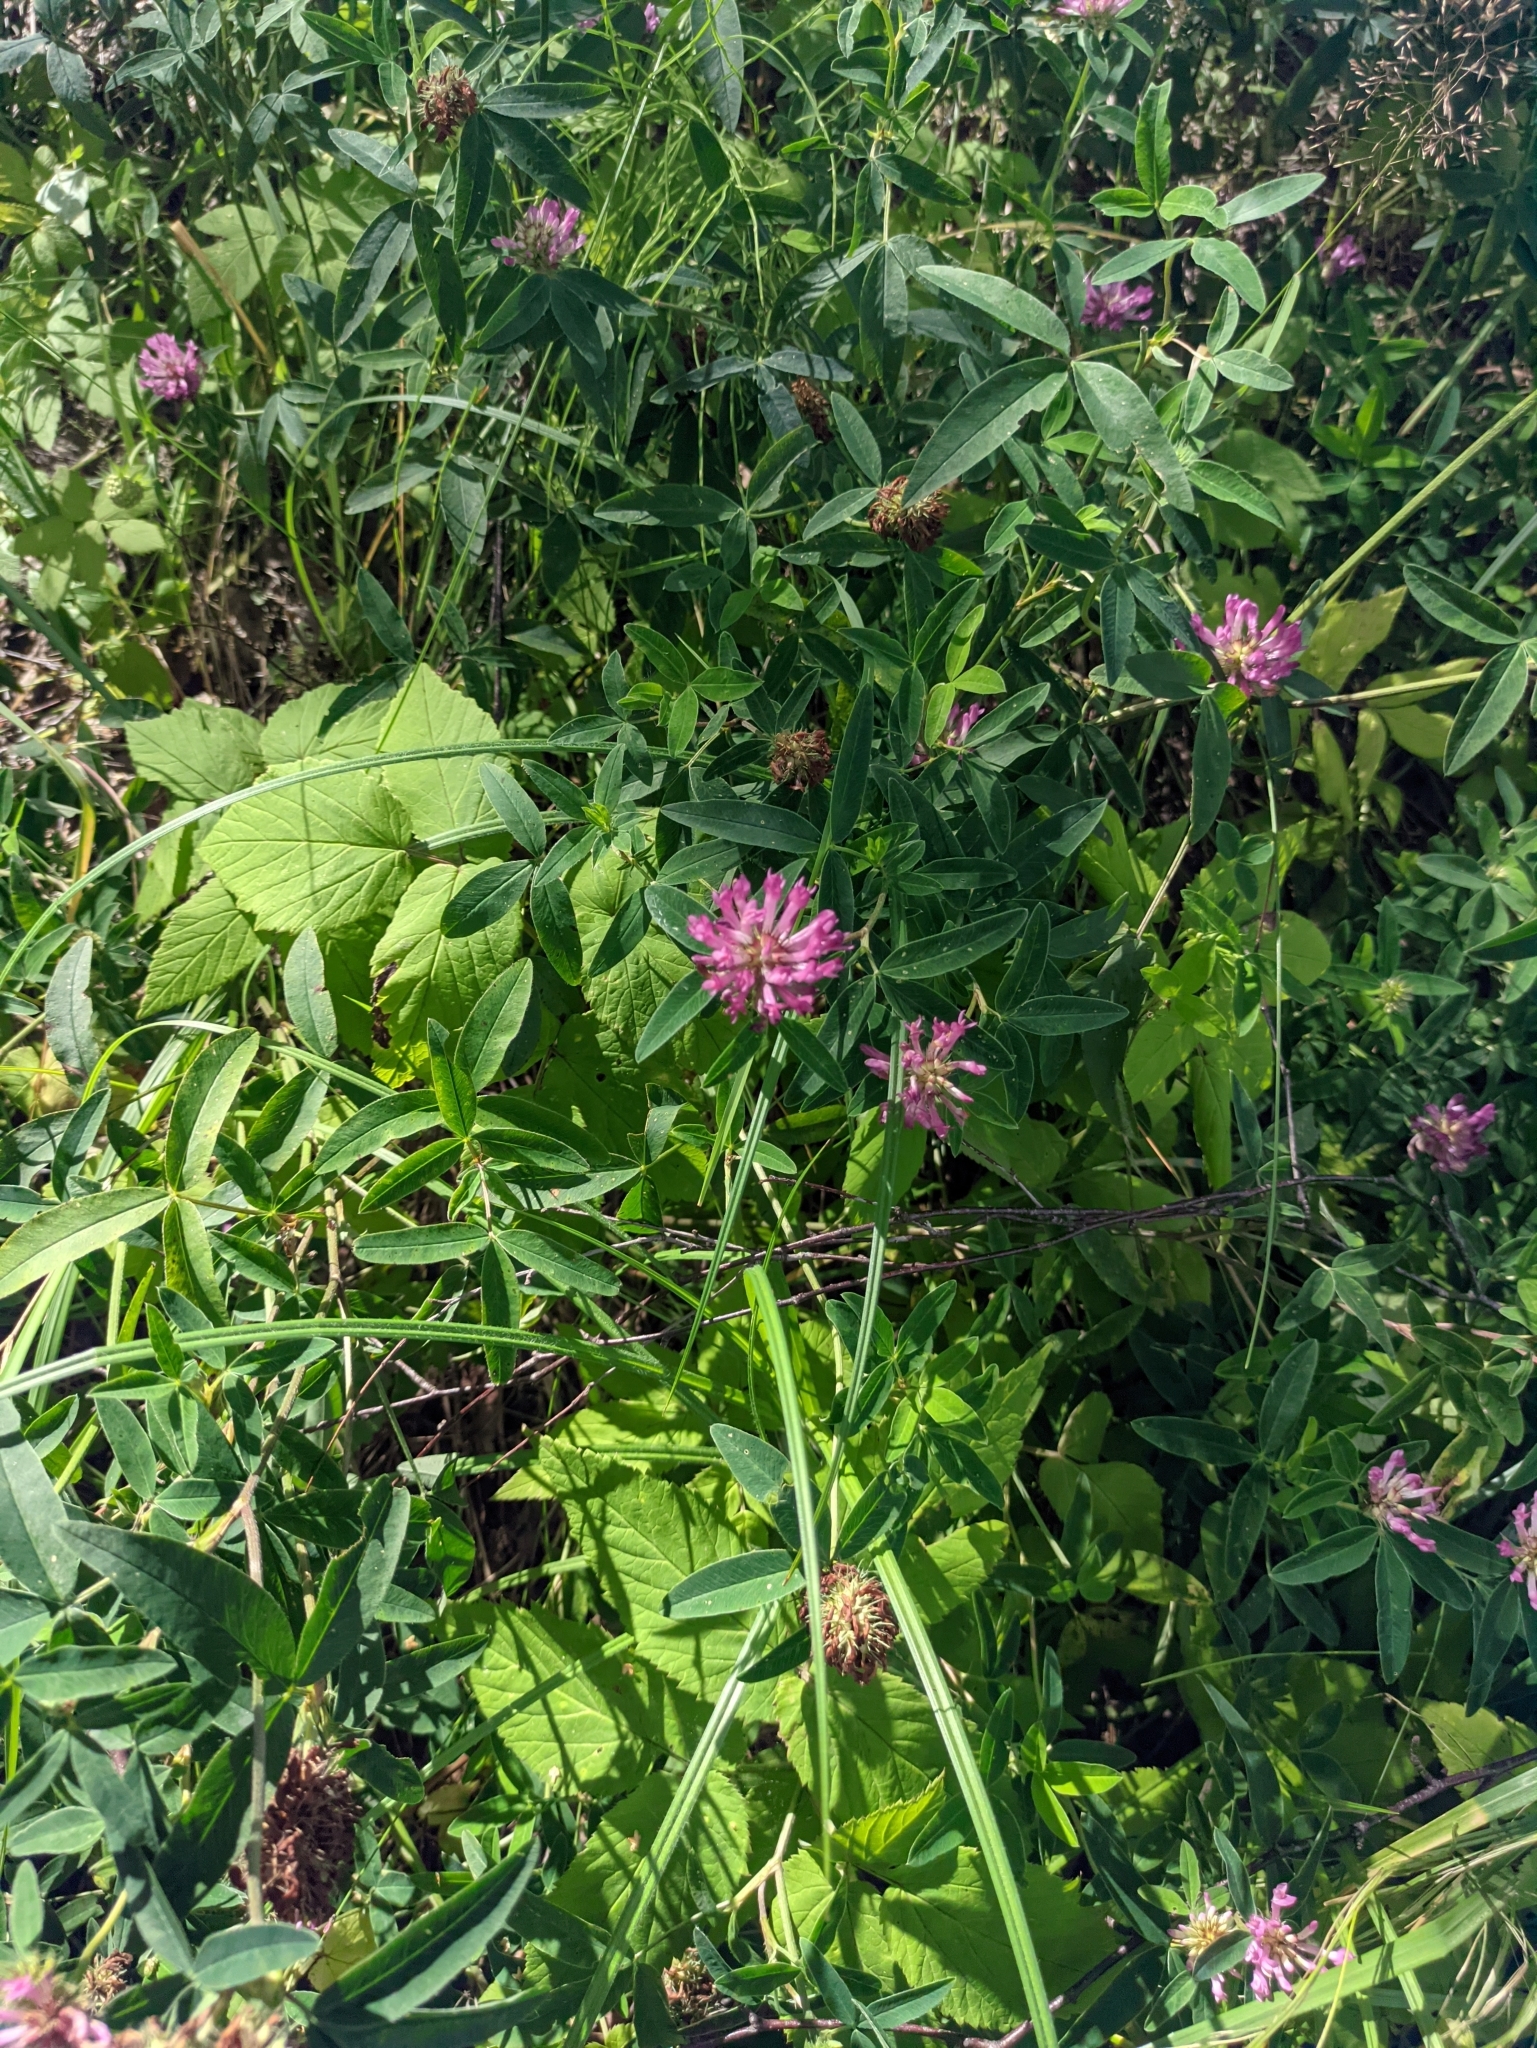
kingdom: Plantae
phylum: Tracheophyta
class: Magnoliopsida
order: Fabales
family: Fabaceae
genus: Trifolium
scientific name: Trifolium medium
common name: Zigzag clover
